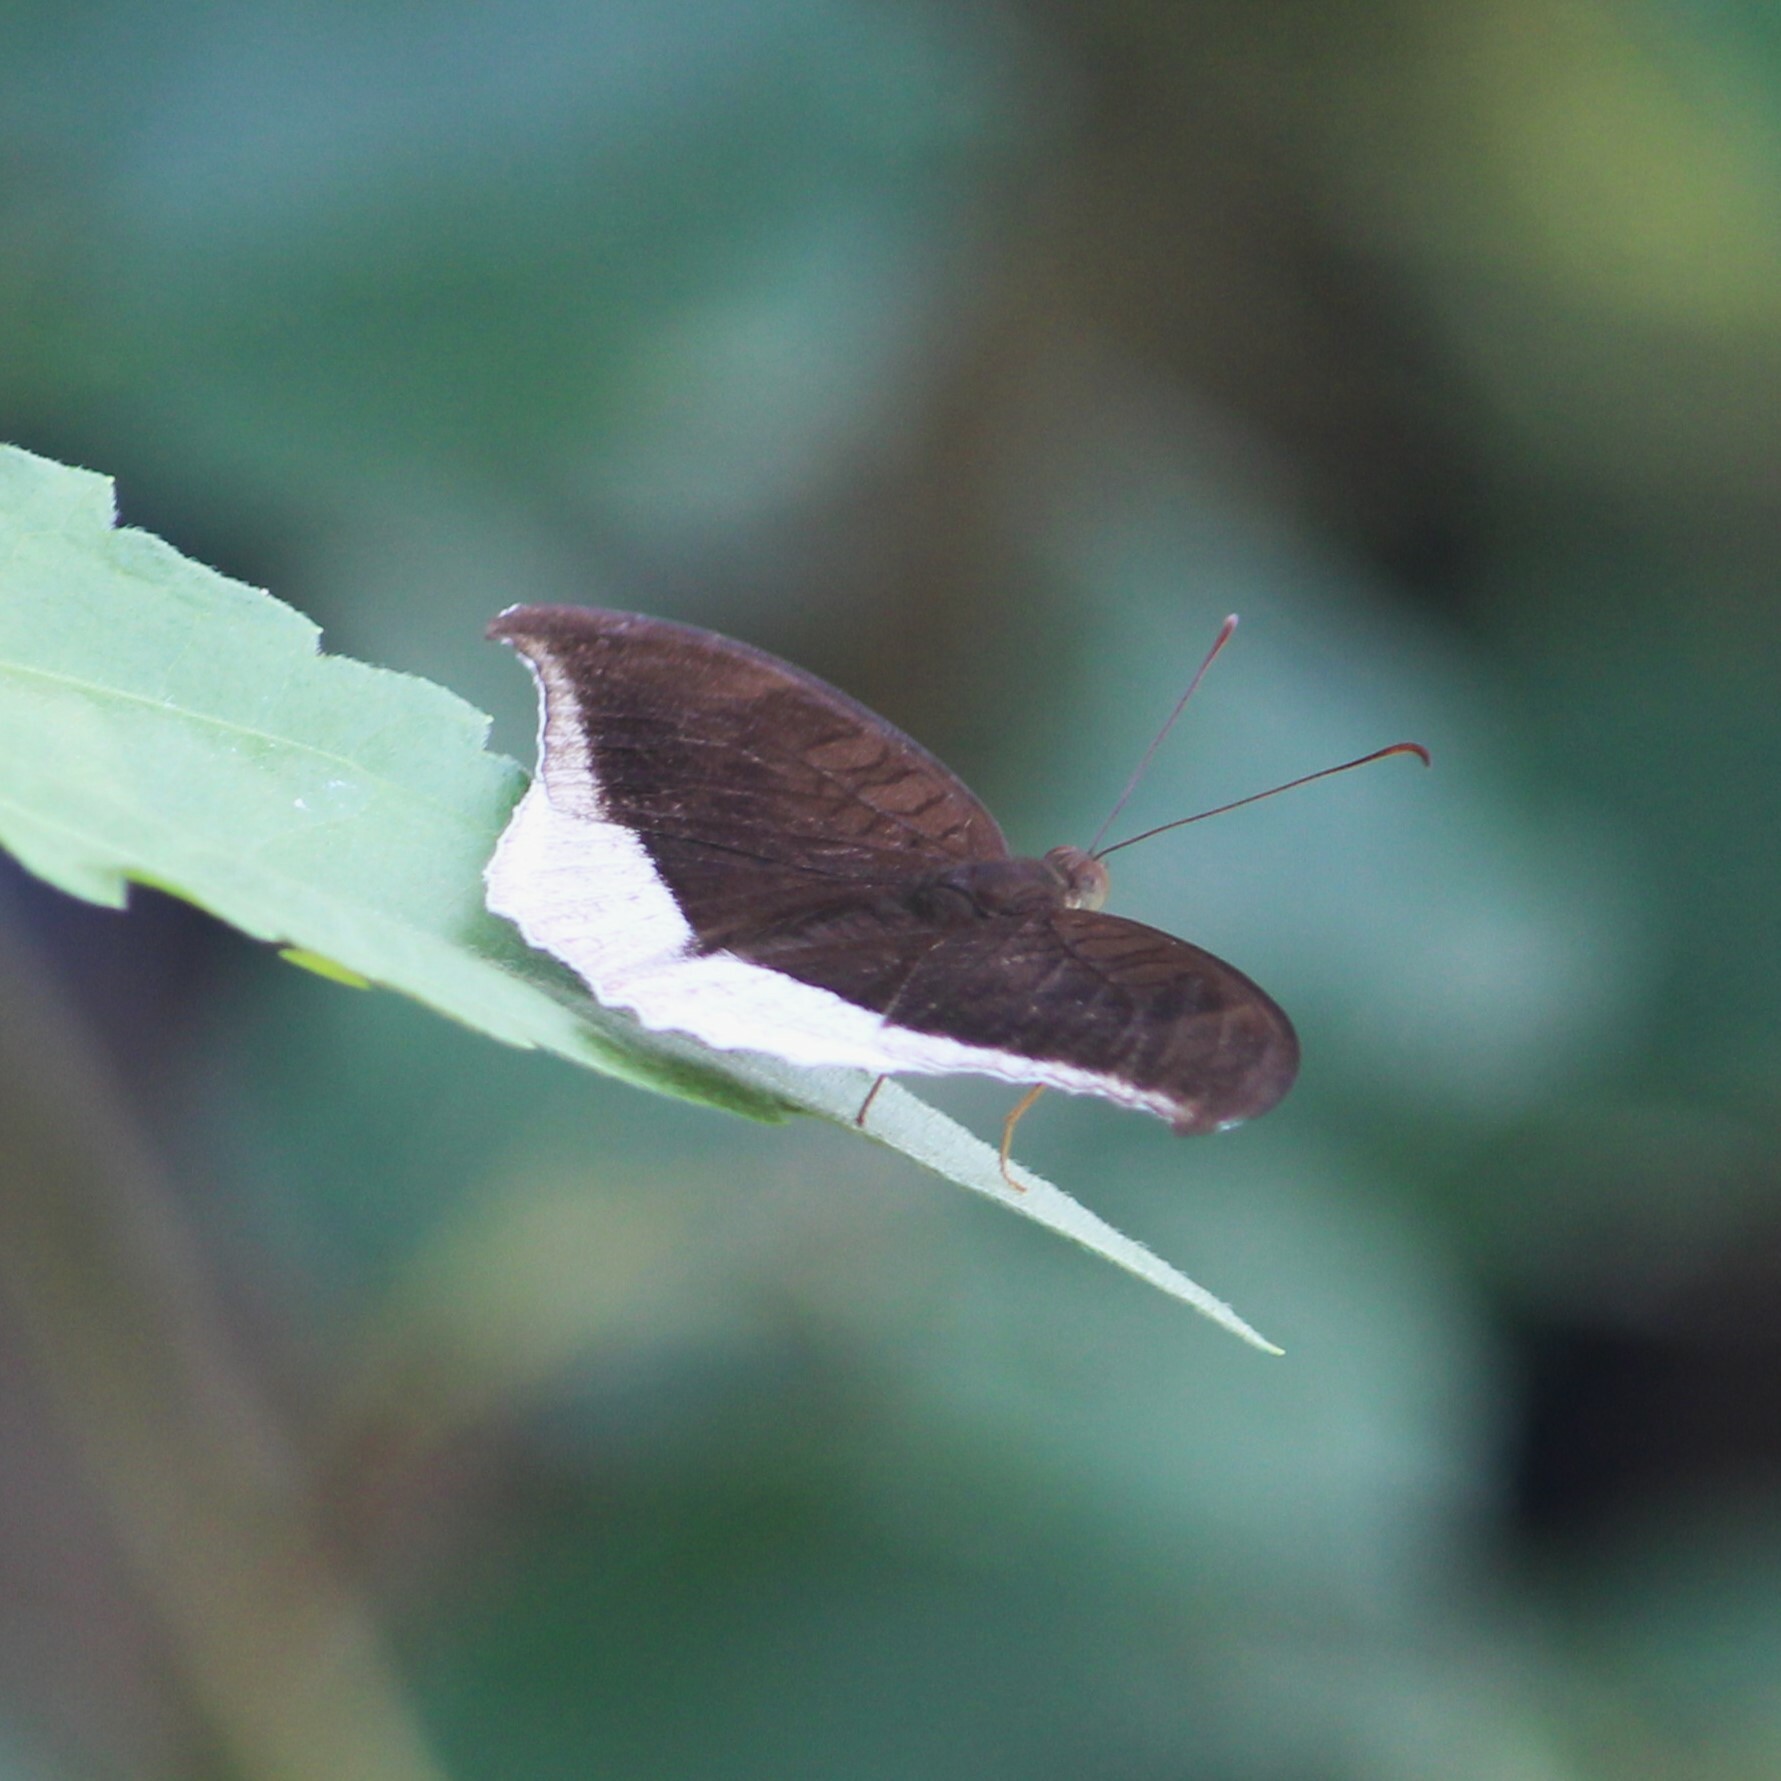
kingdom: Animalia
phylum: Arthropoda
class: Insecta
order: Lepidoptera
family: Nymphalidae
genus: Tanaecia
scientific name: Tanaecia lepidea
